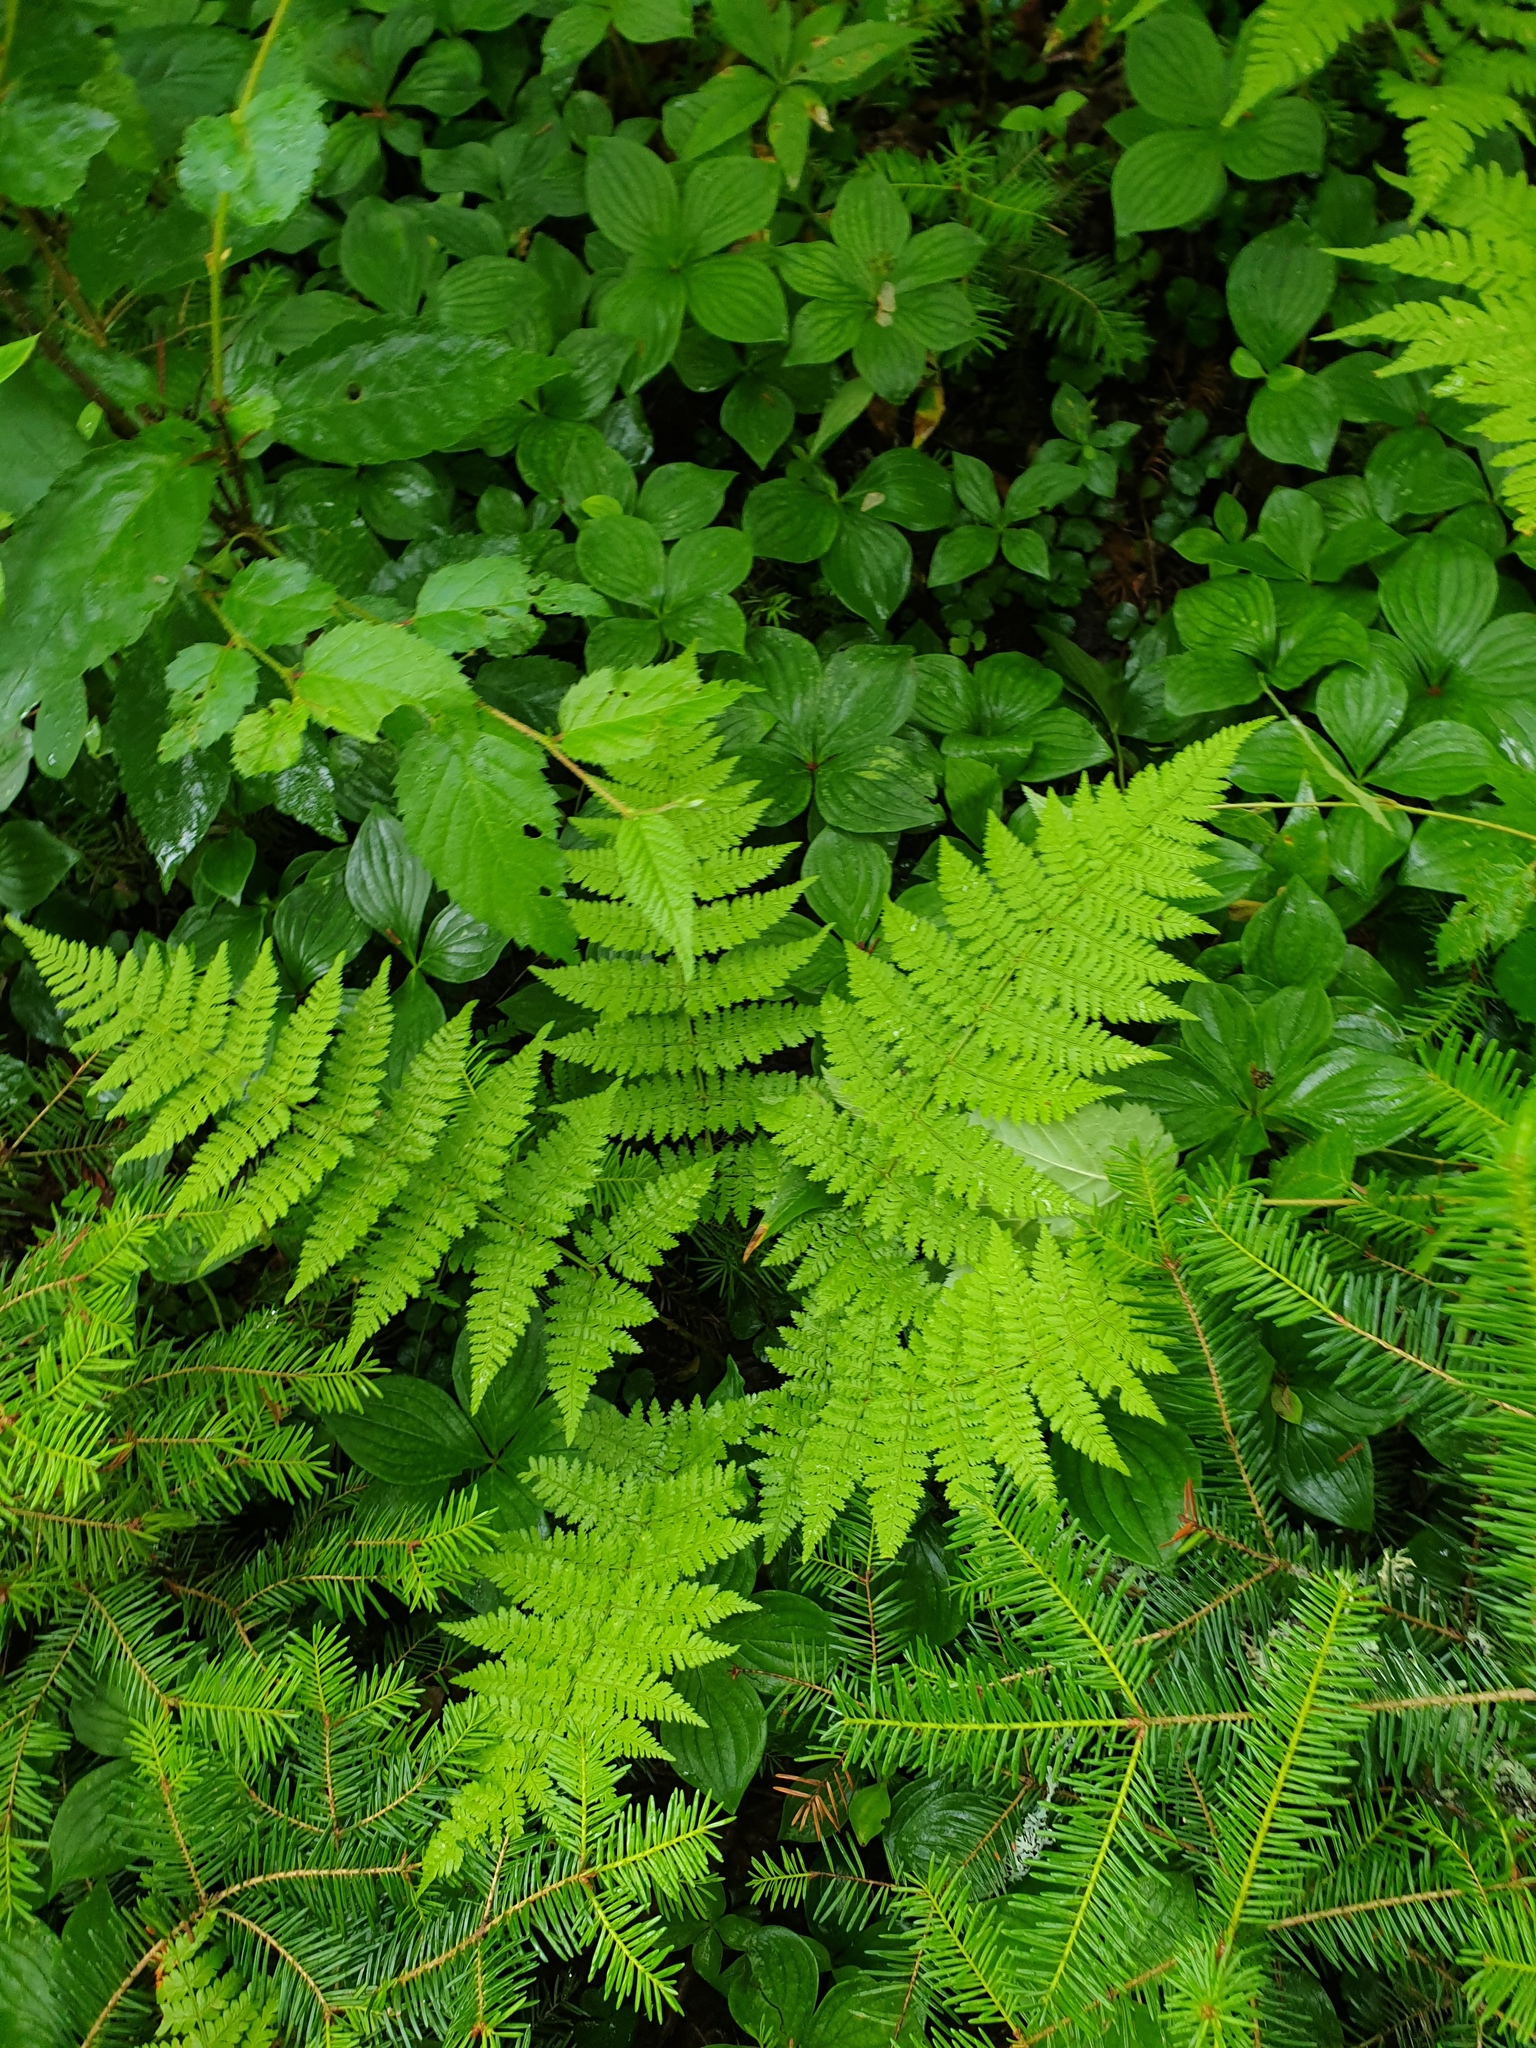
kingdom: Plantae
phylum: Tracheophyta
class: Pinopsida
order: Pinales
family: Pinaceae
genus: Abies
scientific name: Abies balsamea
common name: Balsam fir
